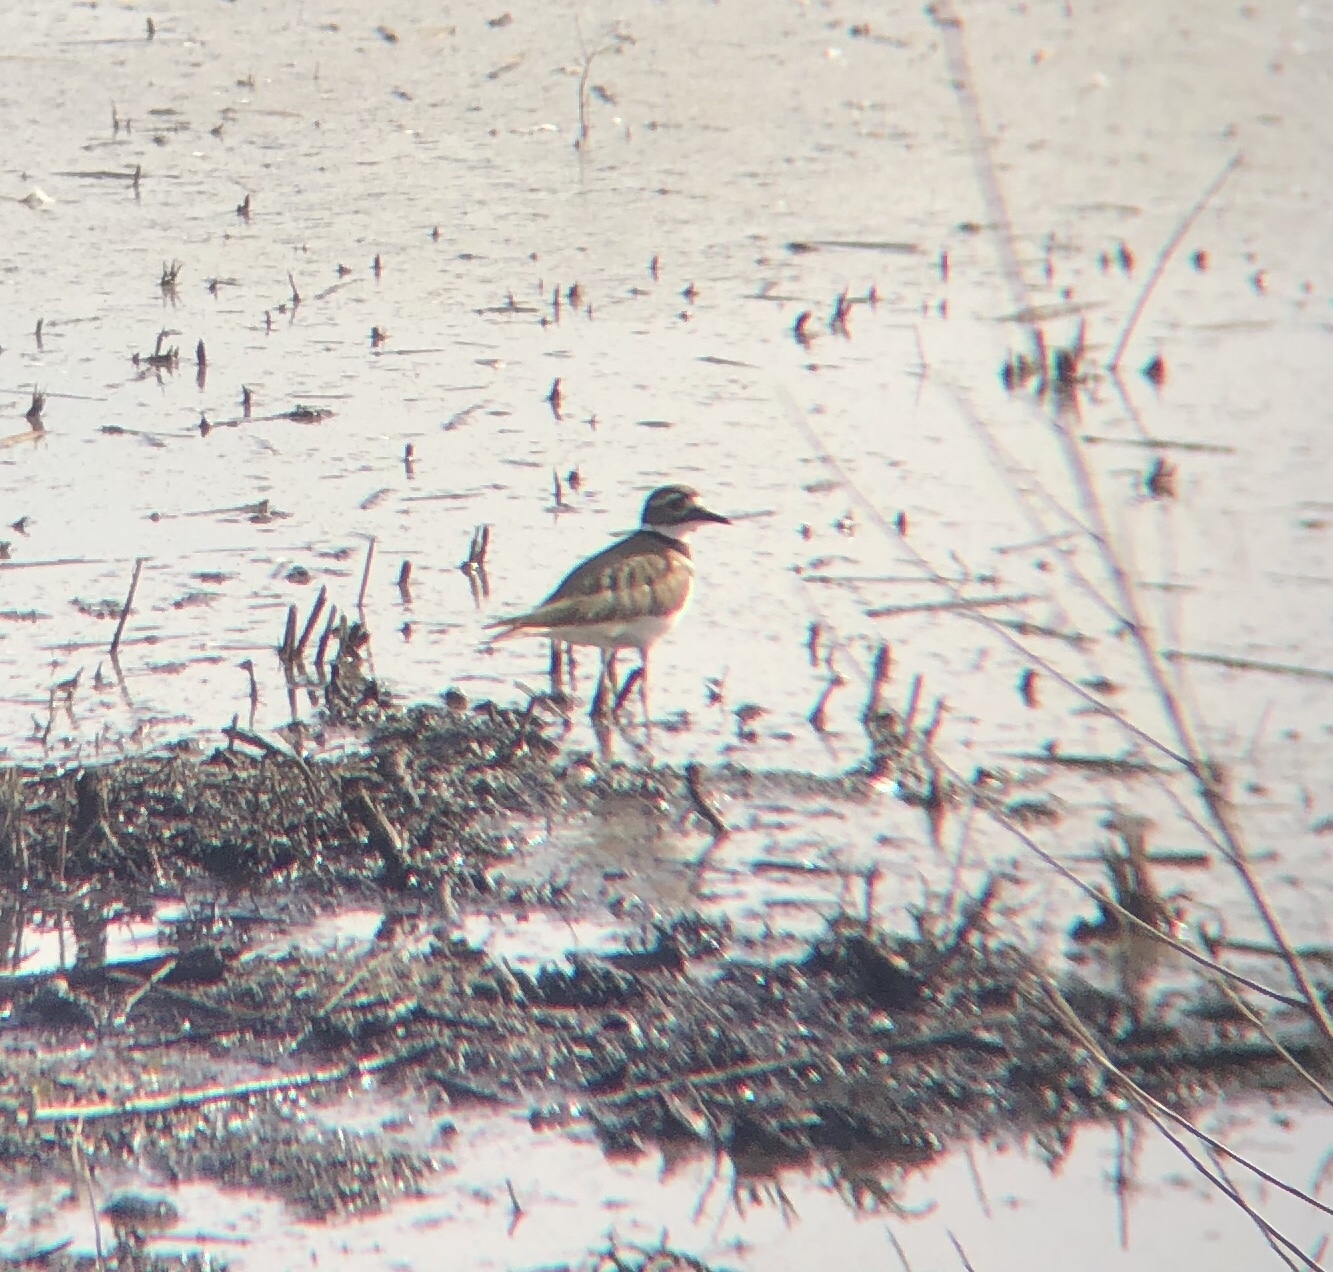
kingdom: Animalia
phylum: Chordata
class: Aves
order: Charadriiformes
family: Charadriidae
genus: Charadrius
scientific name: Charadrius vociferus
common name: Killdeer
